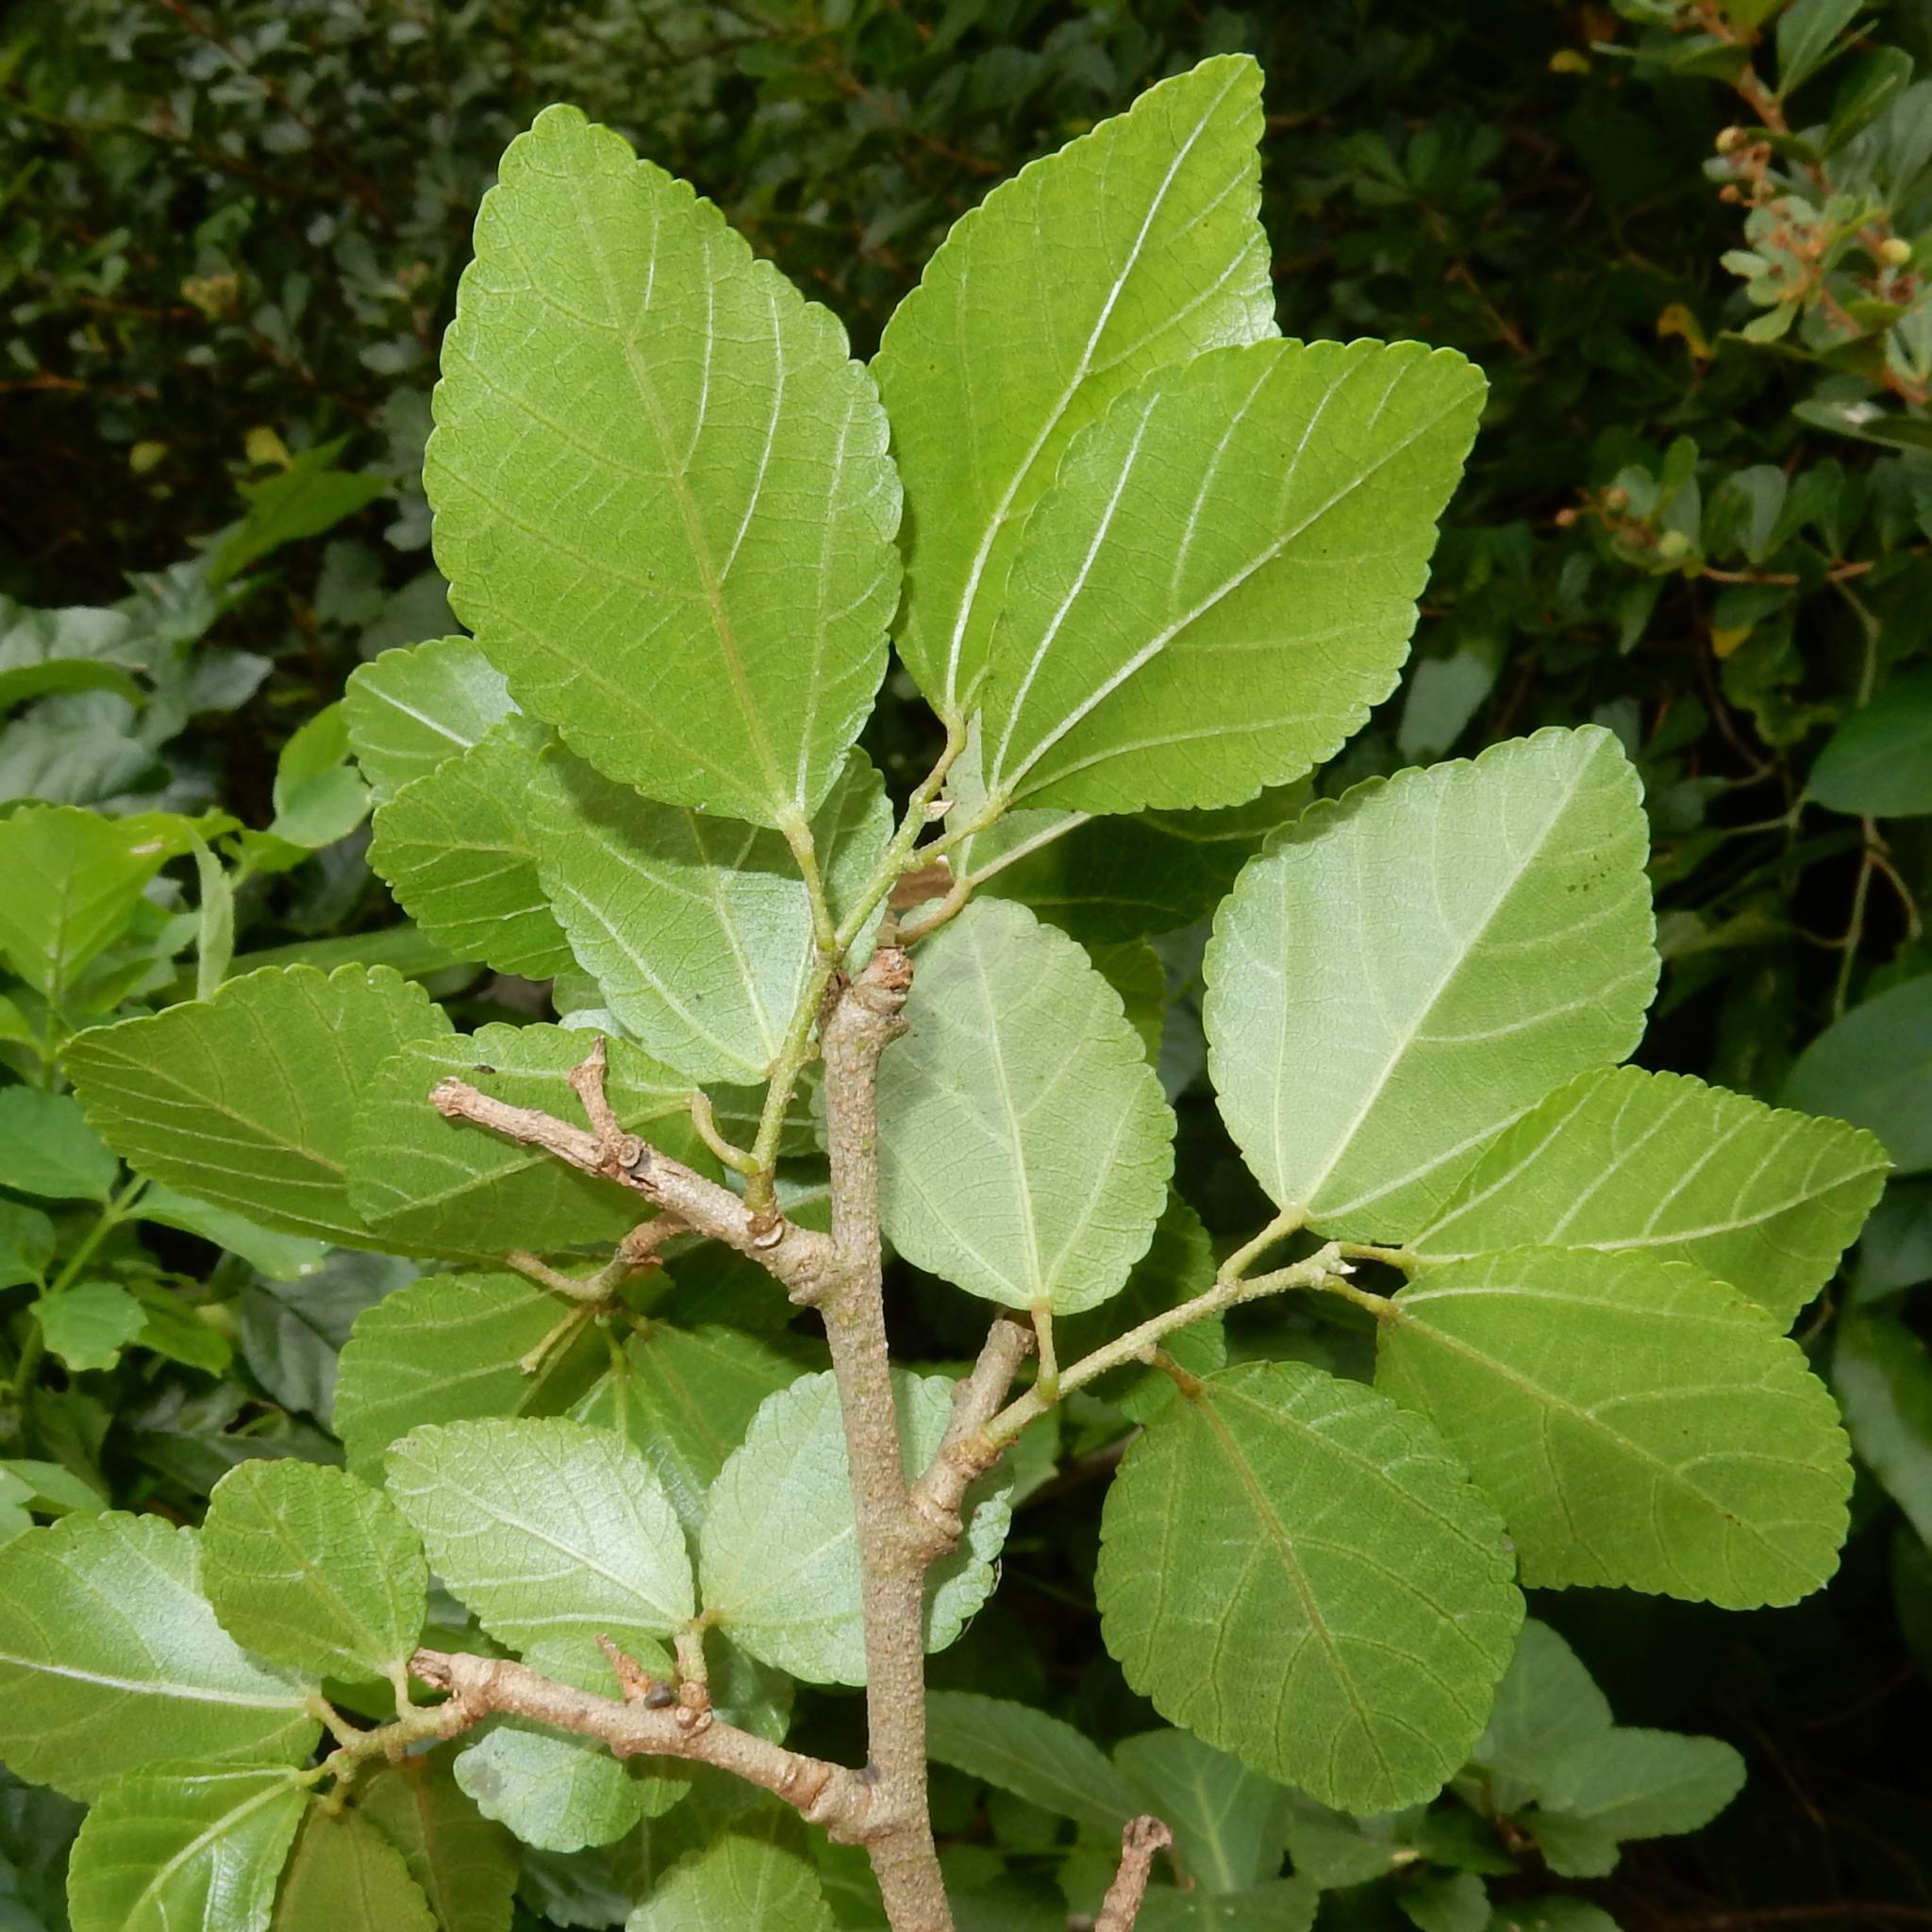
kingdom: Plantae
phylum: Tracheophyta
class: Magnoliopsida
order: Malvales
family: Malvaceae
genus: Grewia
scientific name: Grewia occidentalis
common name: Crossberry
